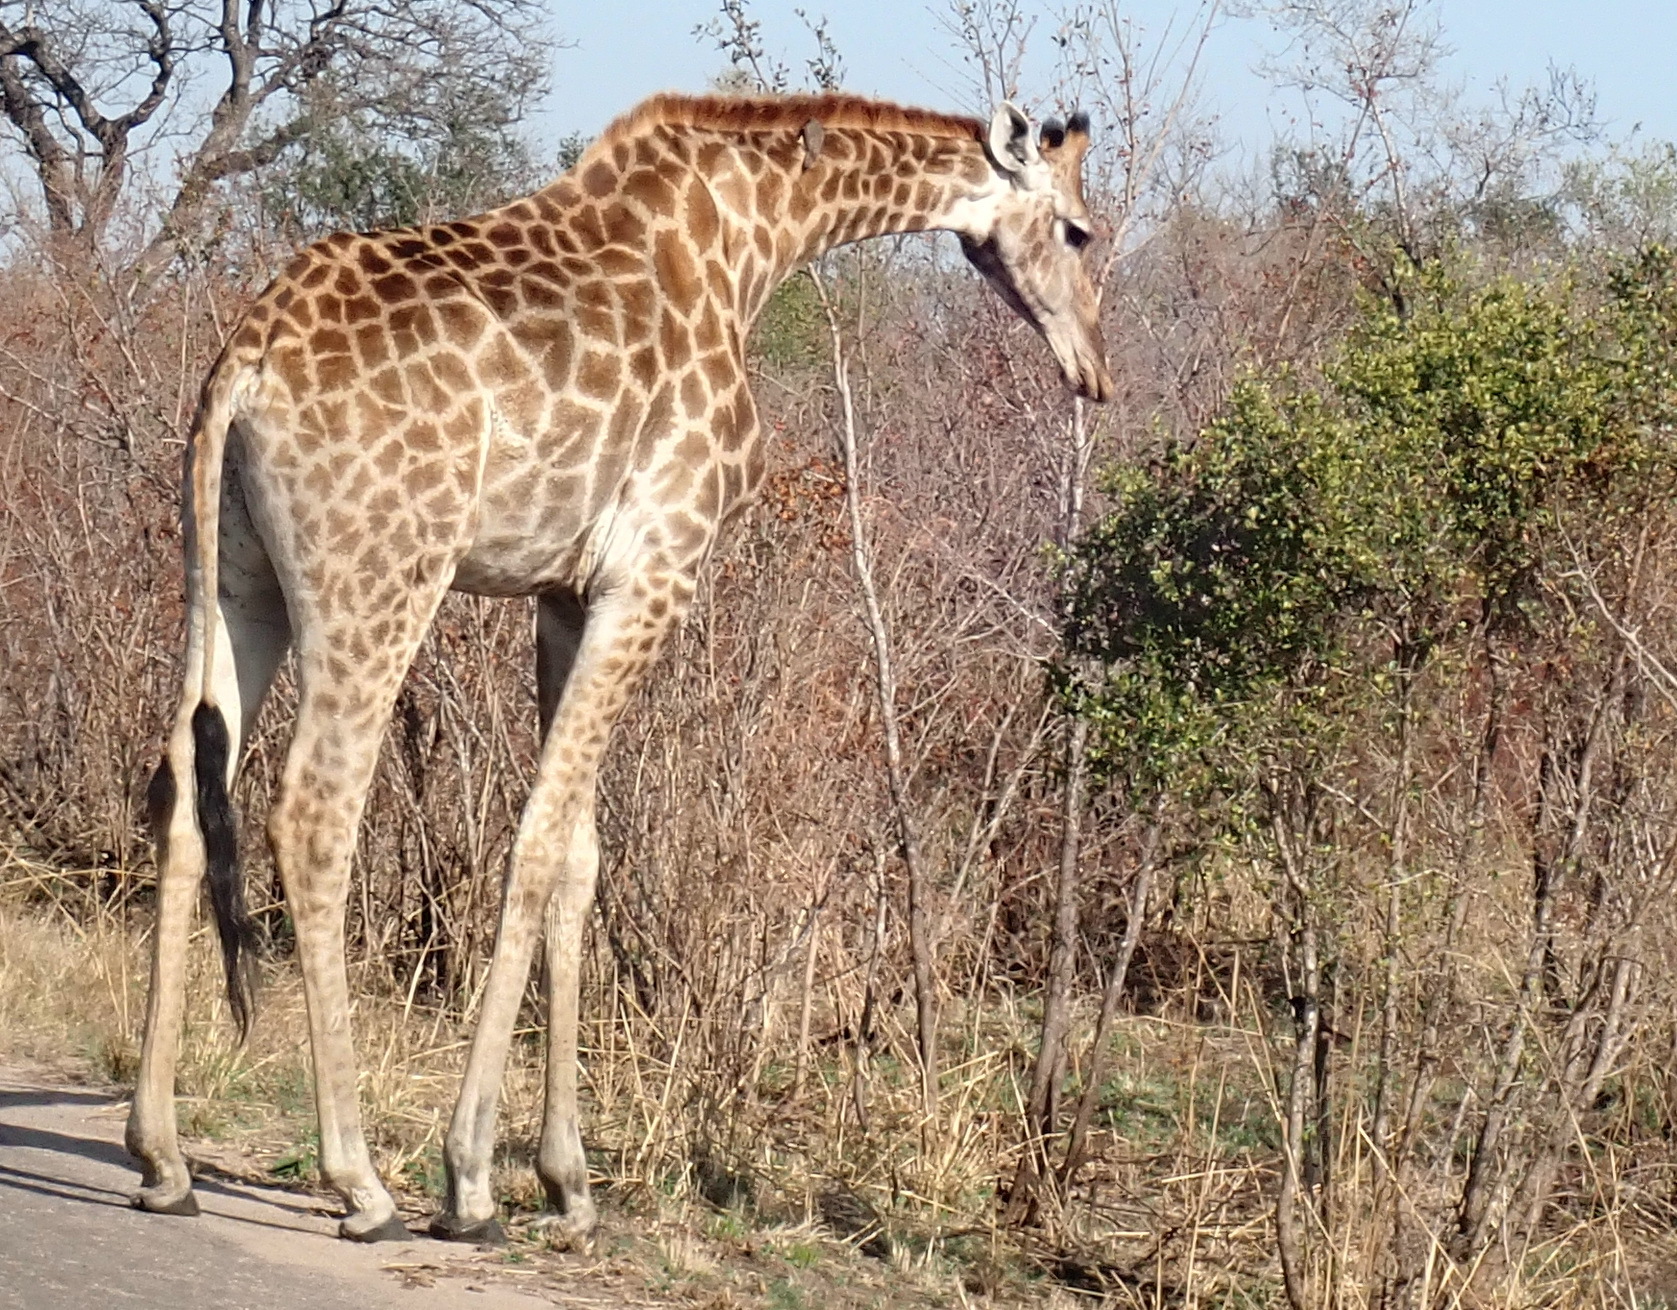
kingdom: Animalia
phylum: Chordata
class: Mammalia
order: Artiodactyla
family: Giraffidae
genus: Giraffa
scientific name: Giraffa giraffa
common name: Southern giraffe
